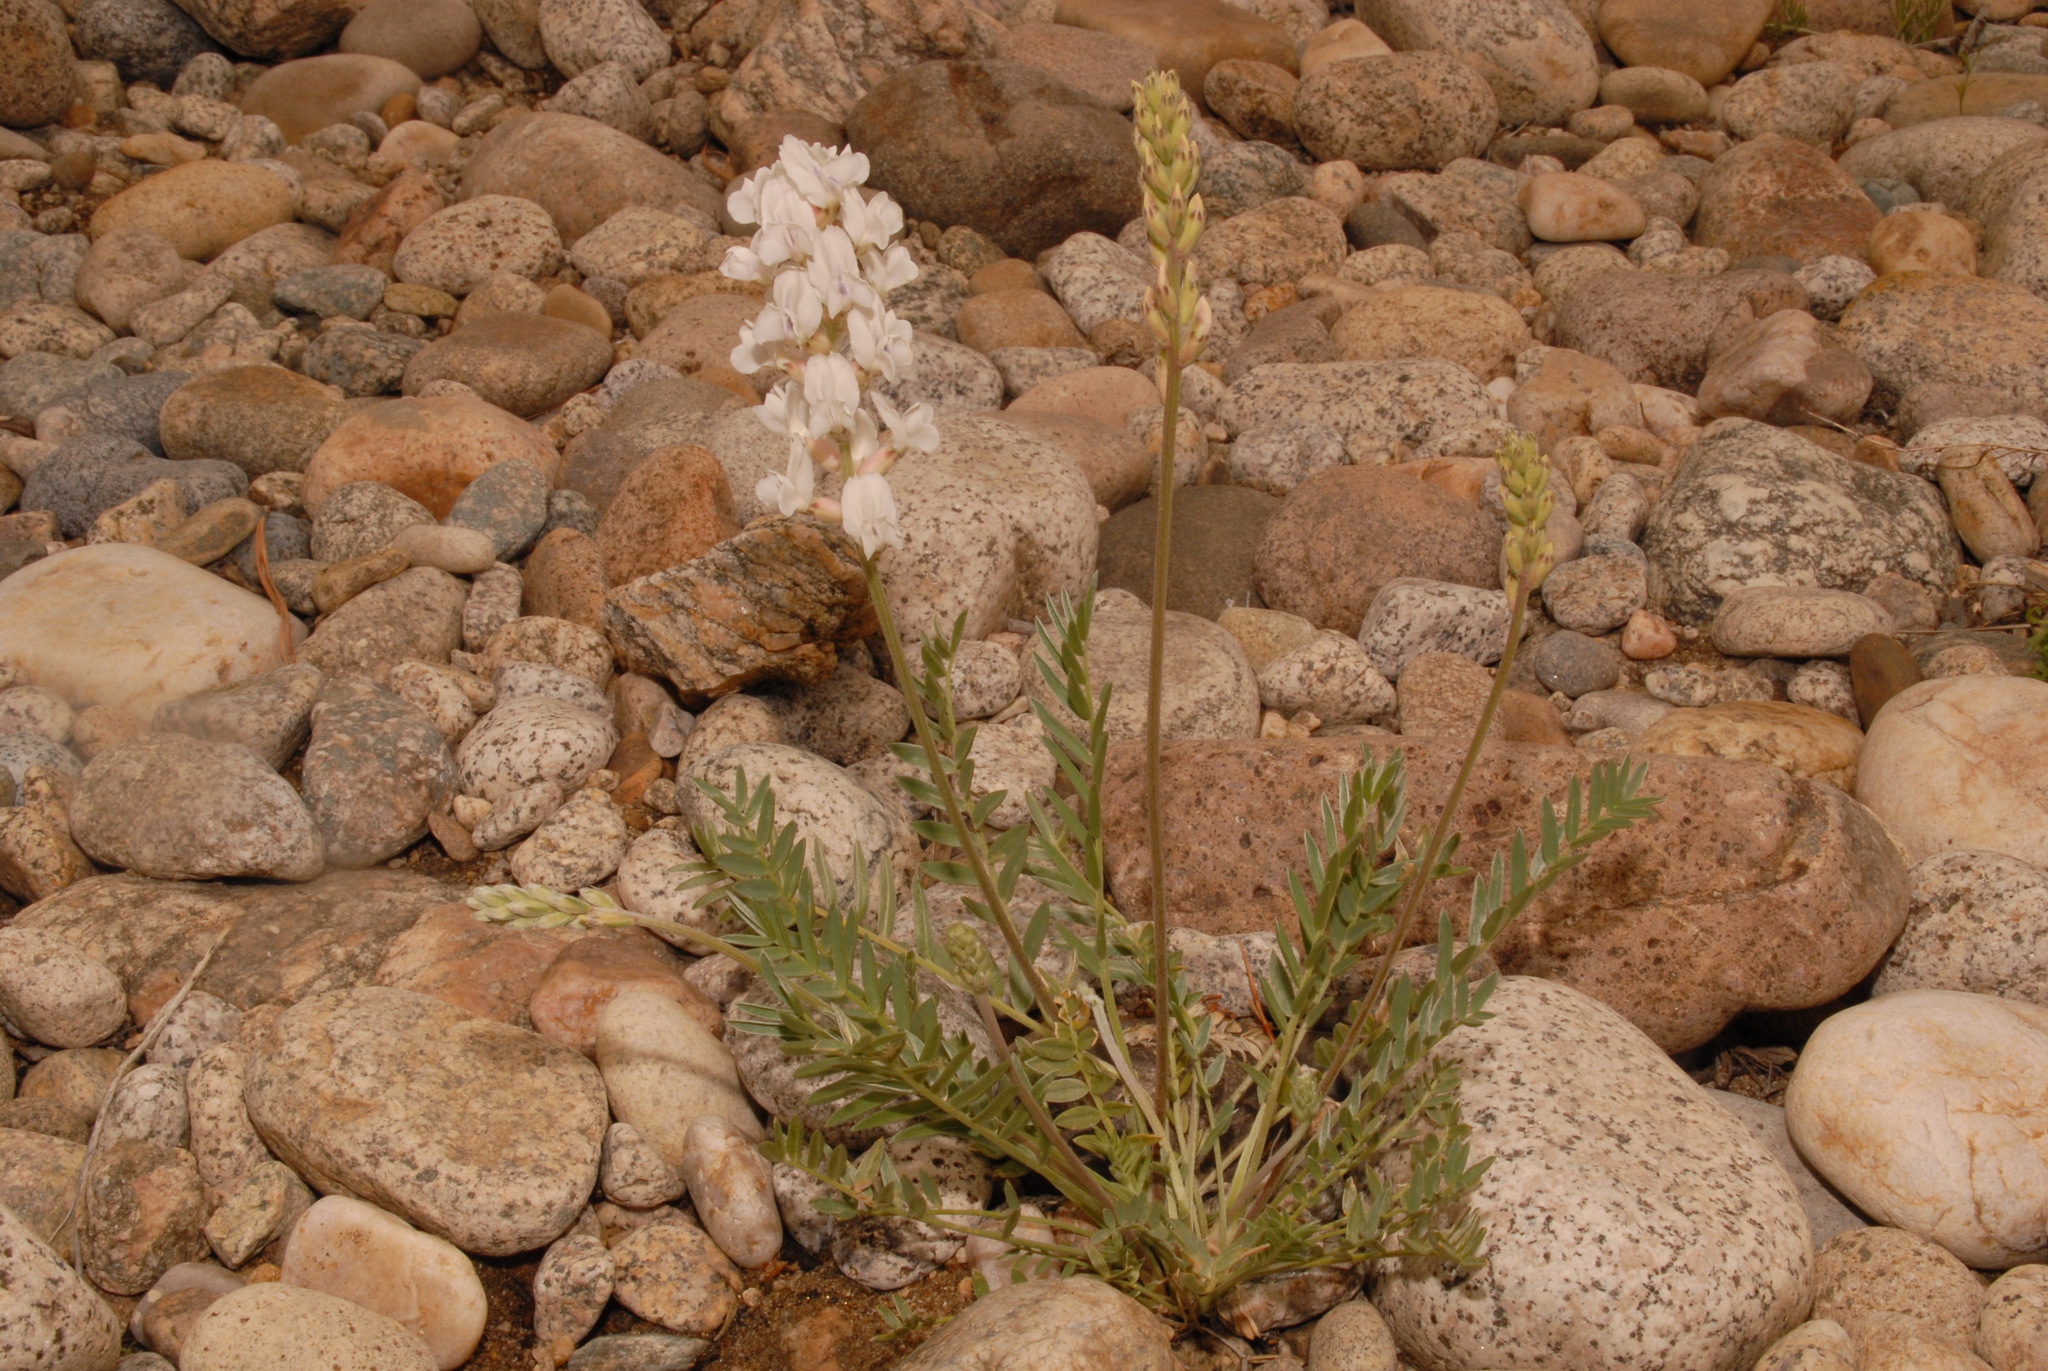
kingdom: Plantae
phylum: Tracheophyta
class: Magnoliopsida
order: Fabales
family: Fabaceae
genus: Oxytropis
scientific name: Oxytropis sericea
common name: Silky locoweed
